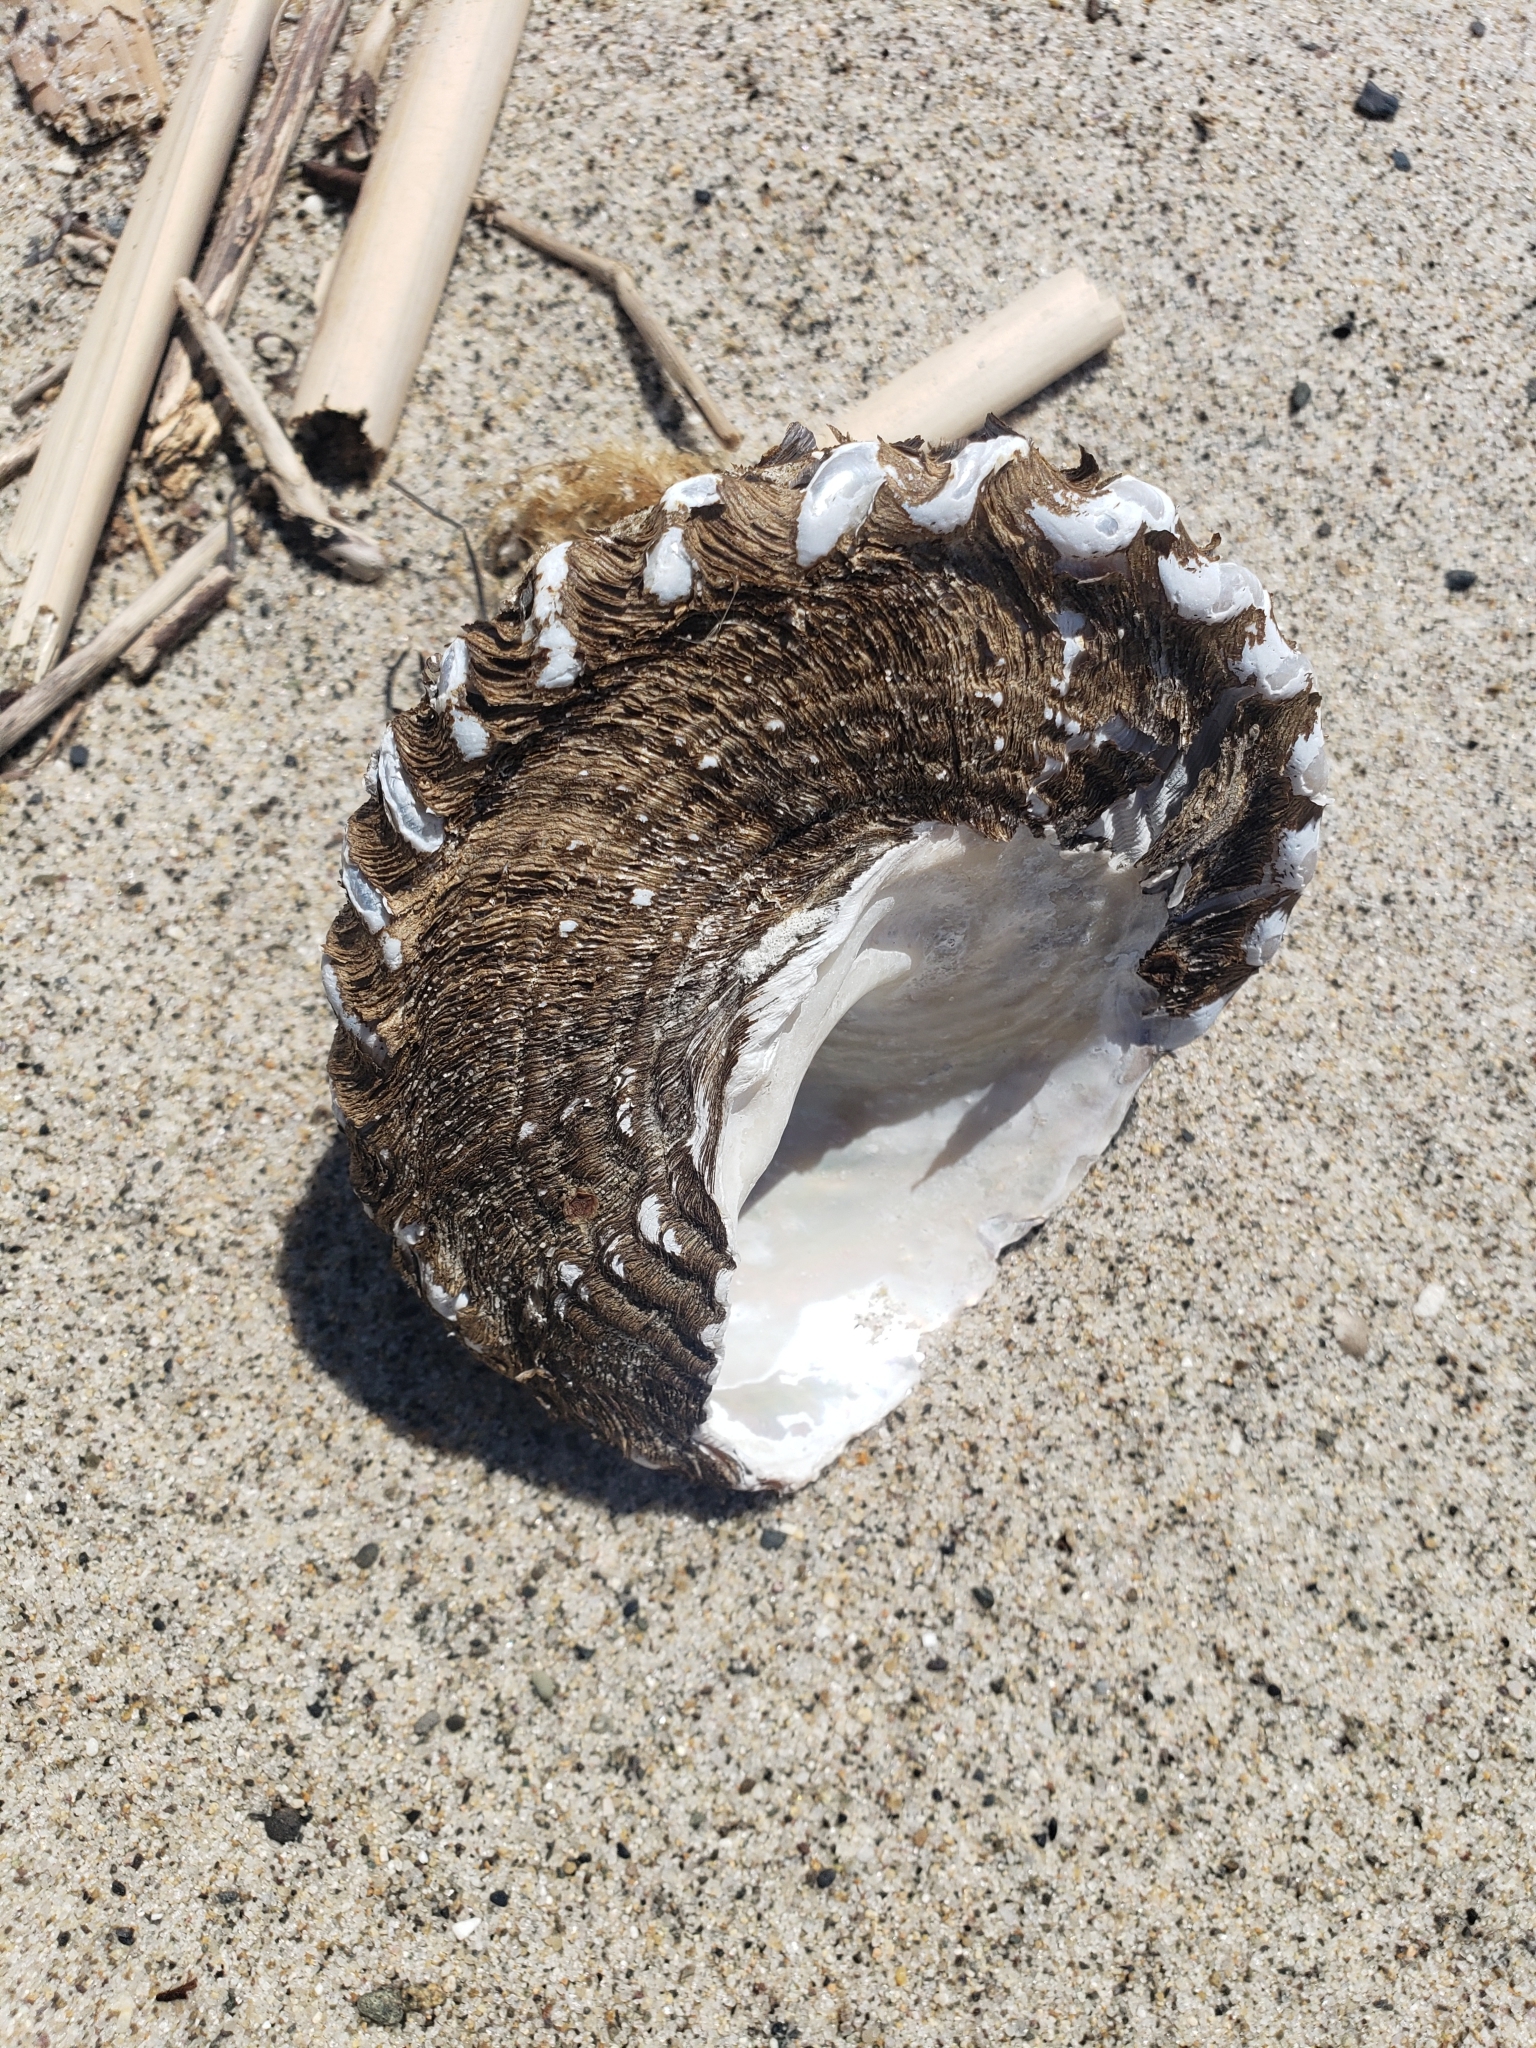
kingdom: Animalia
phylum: Mollusca
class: Gastropoda
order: Trochida
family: Turbinidae
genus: Megastraea
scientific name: Megastraea undosa
